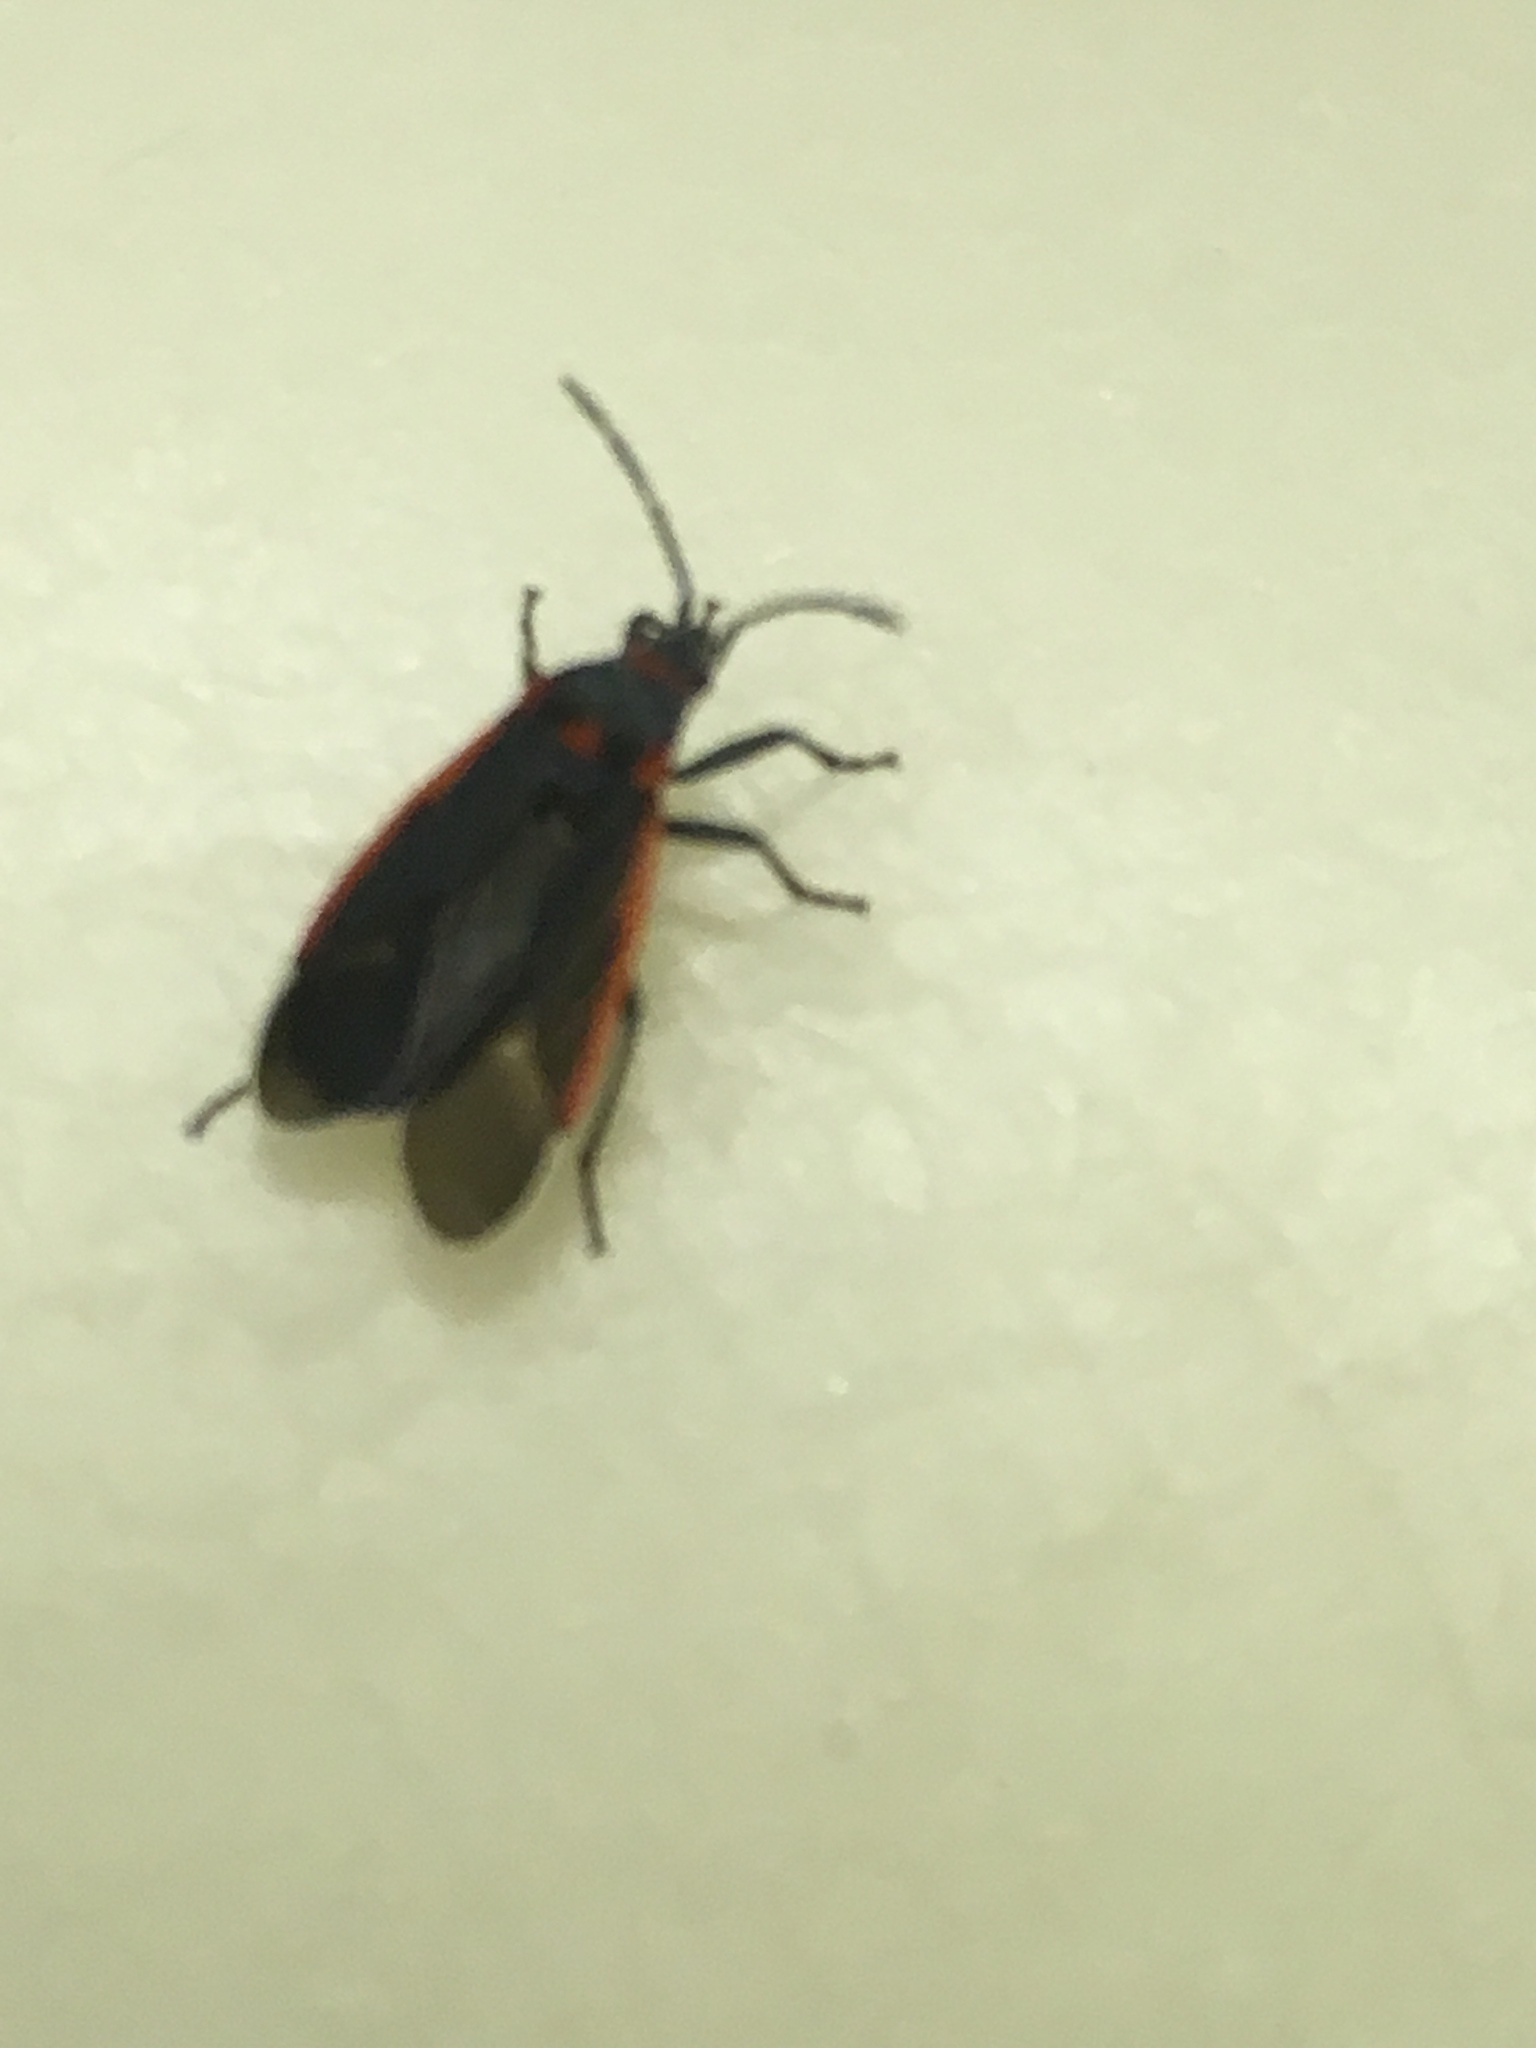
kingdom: Animalia
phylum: Arthropoda
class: Insecta
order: Hemiptera
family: Lygaeidae
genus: Melacoryphus
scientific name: Melacoryphus lateralis
